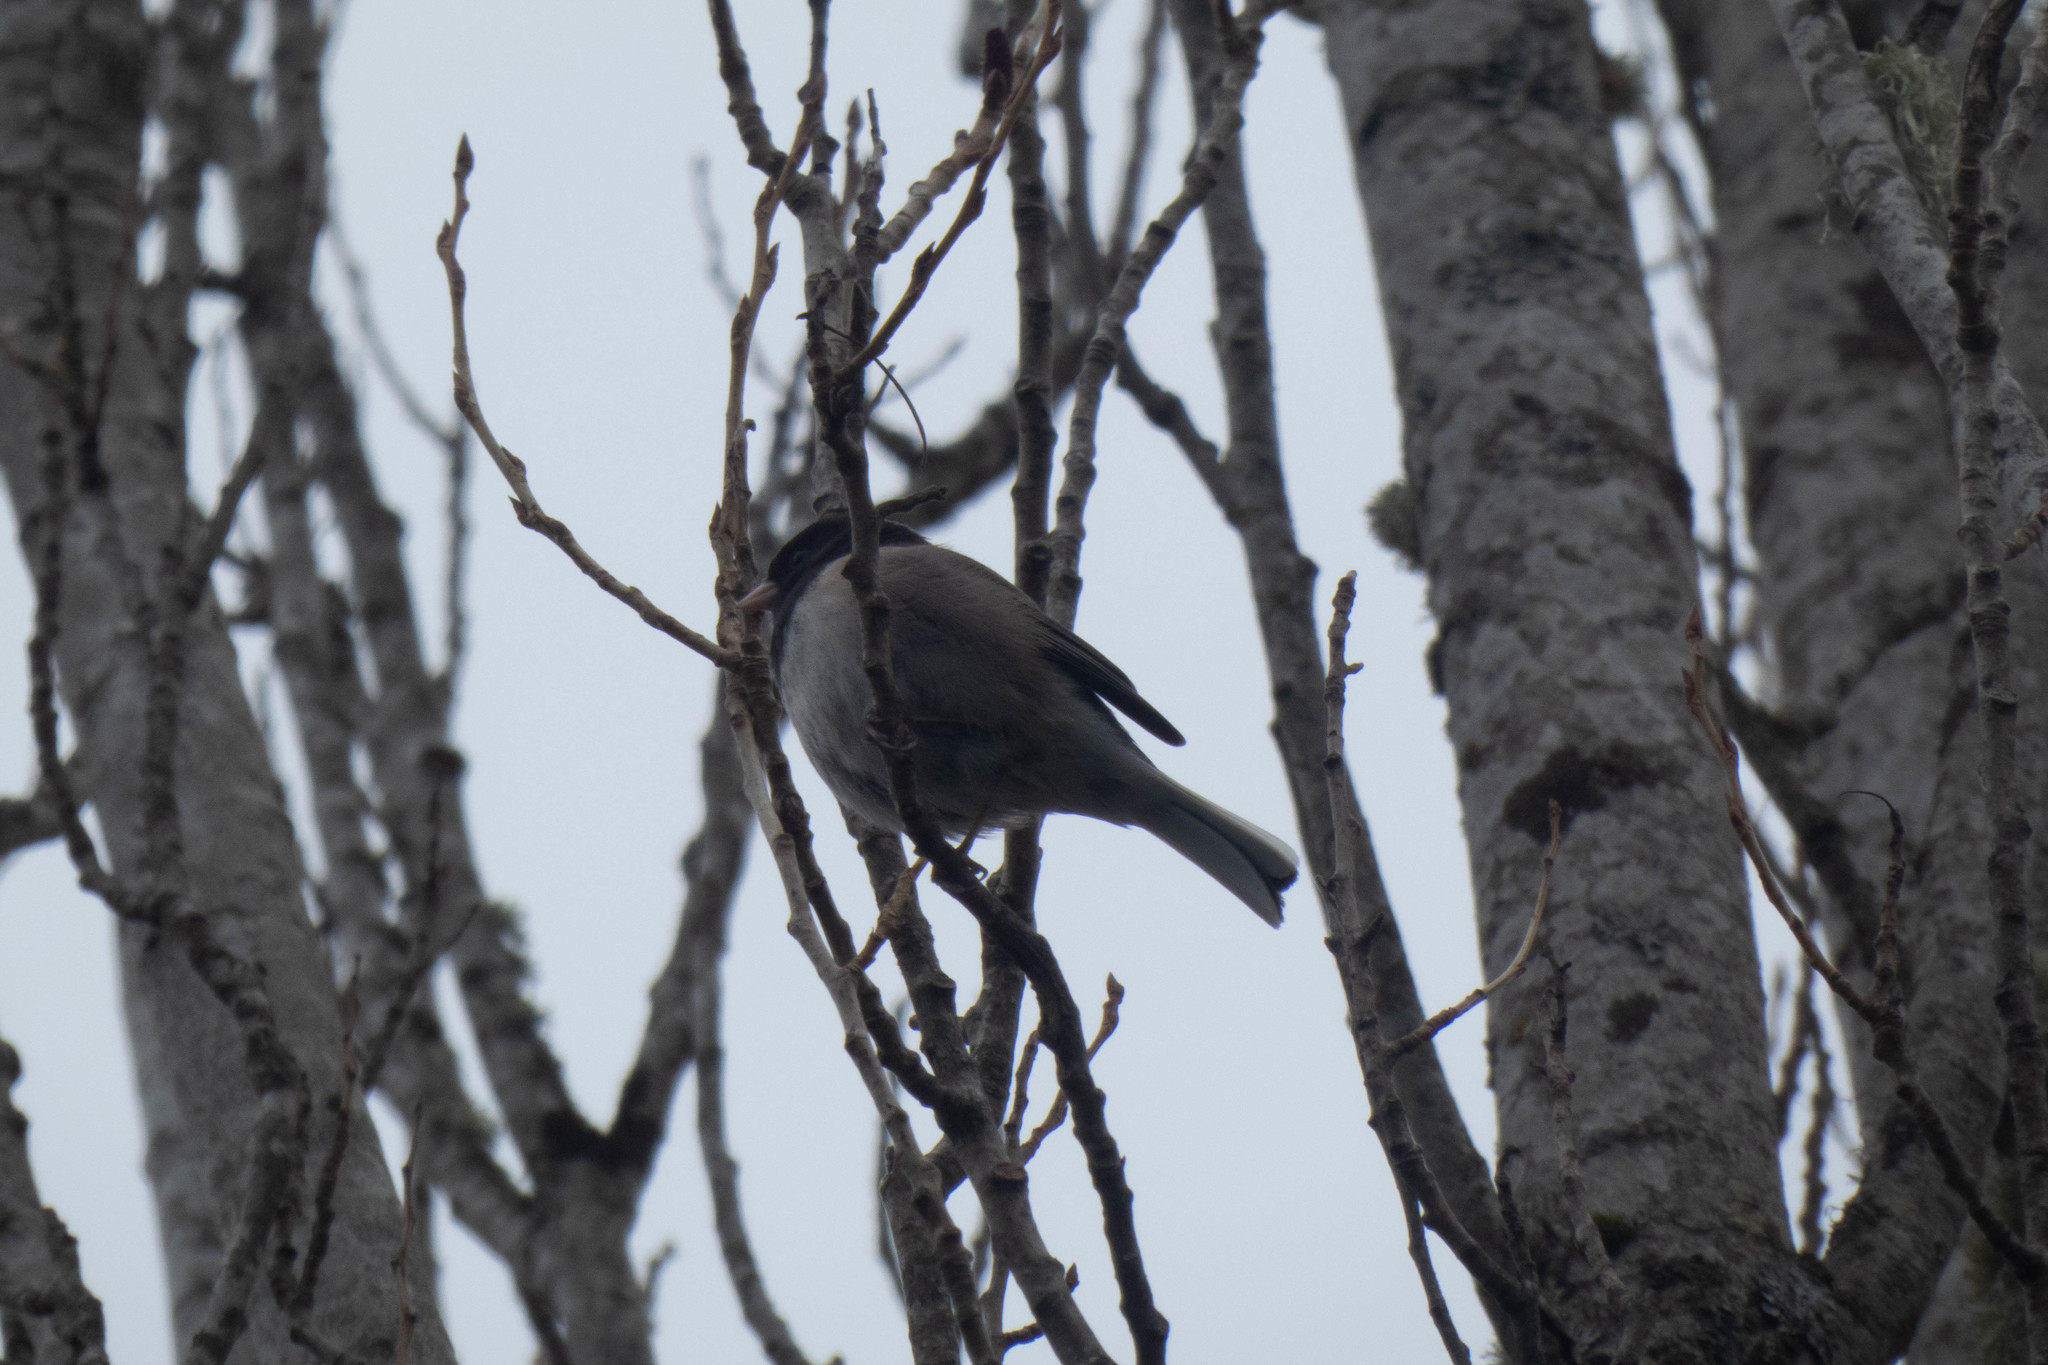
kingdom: Animalia
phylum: Chordata
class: Aves
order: Passeriformes
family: Passerellidae
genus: Junco
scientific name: Junco hyemalis
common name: Dark-eyed junco
